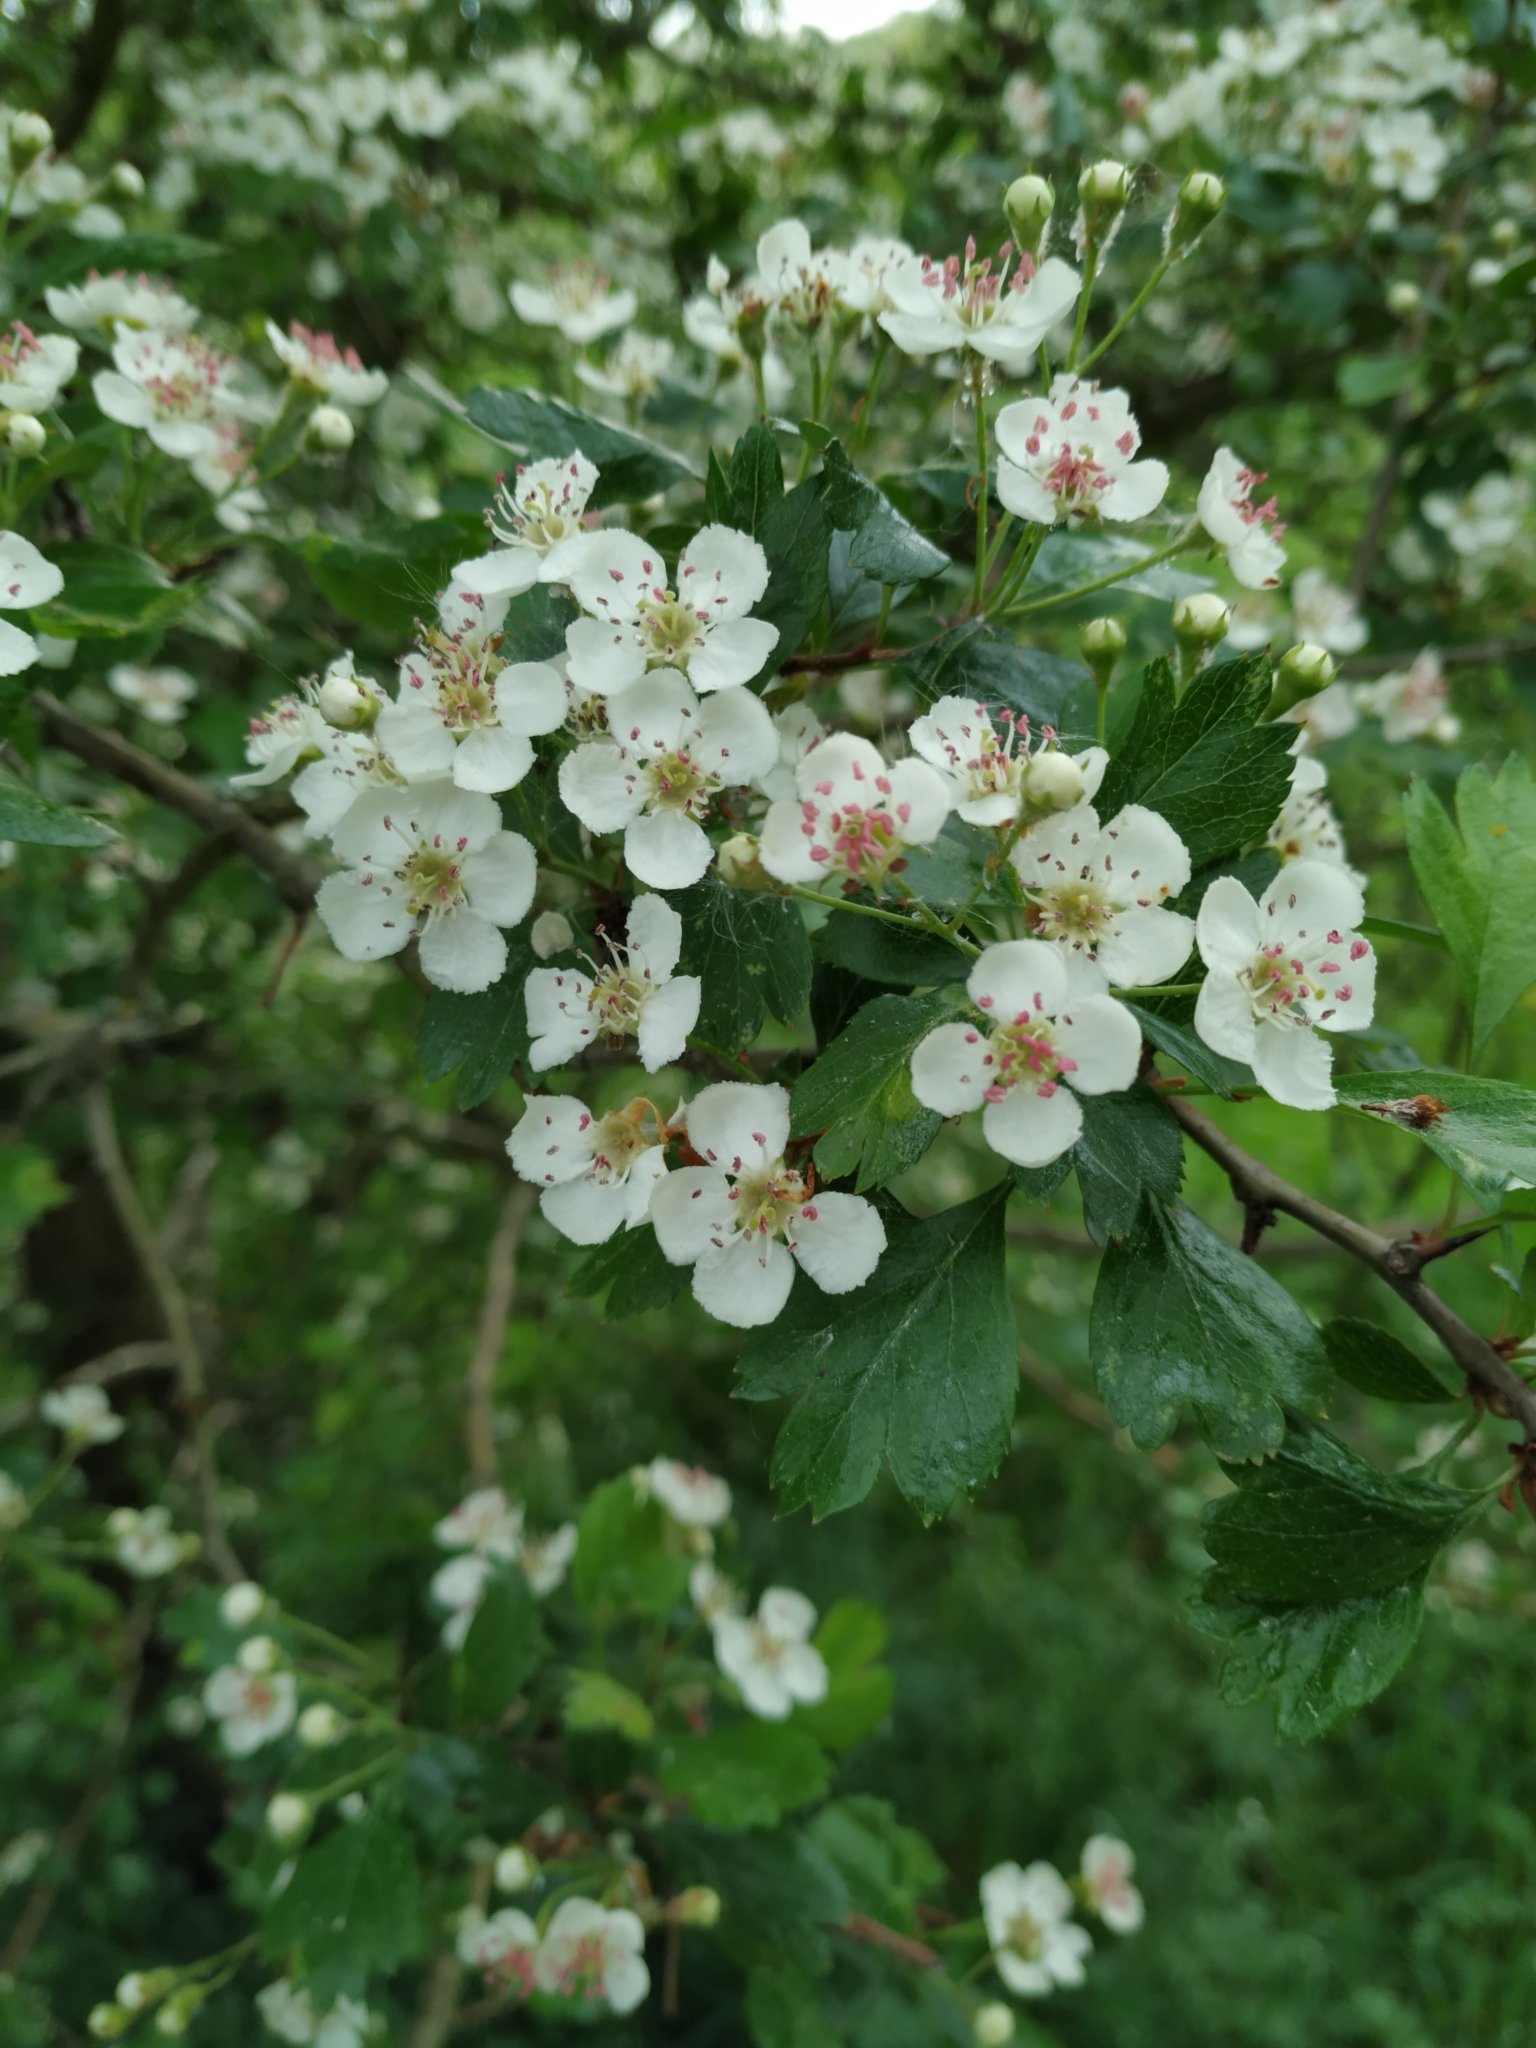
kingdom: Plantae
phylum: Tracheophyta
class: Magnoliopsida
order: Rosales
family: Rosaceae
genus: Crataegus
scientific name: Crataegus laevigata
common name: Midland hawthorn
